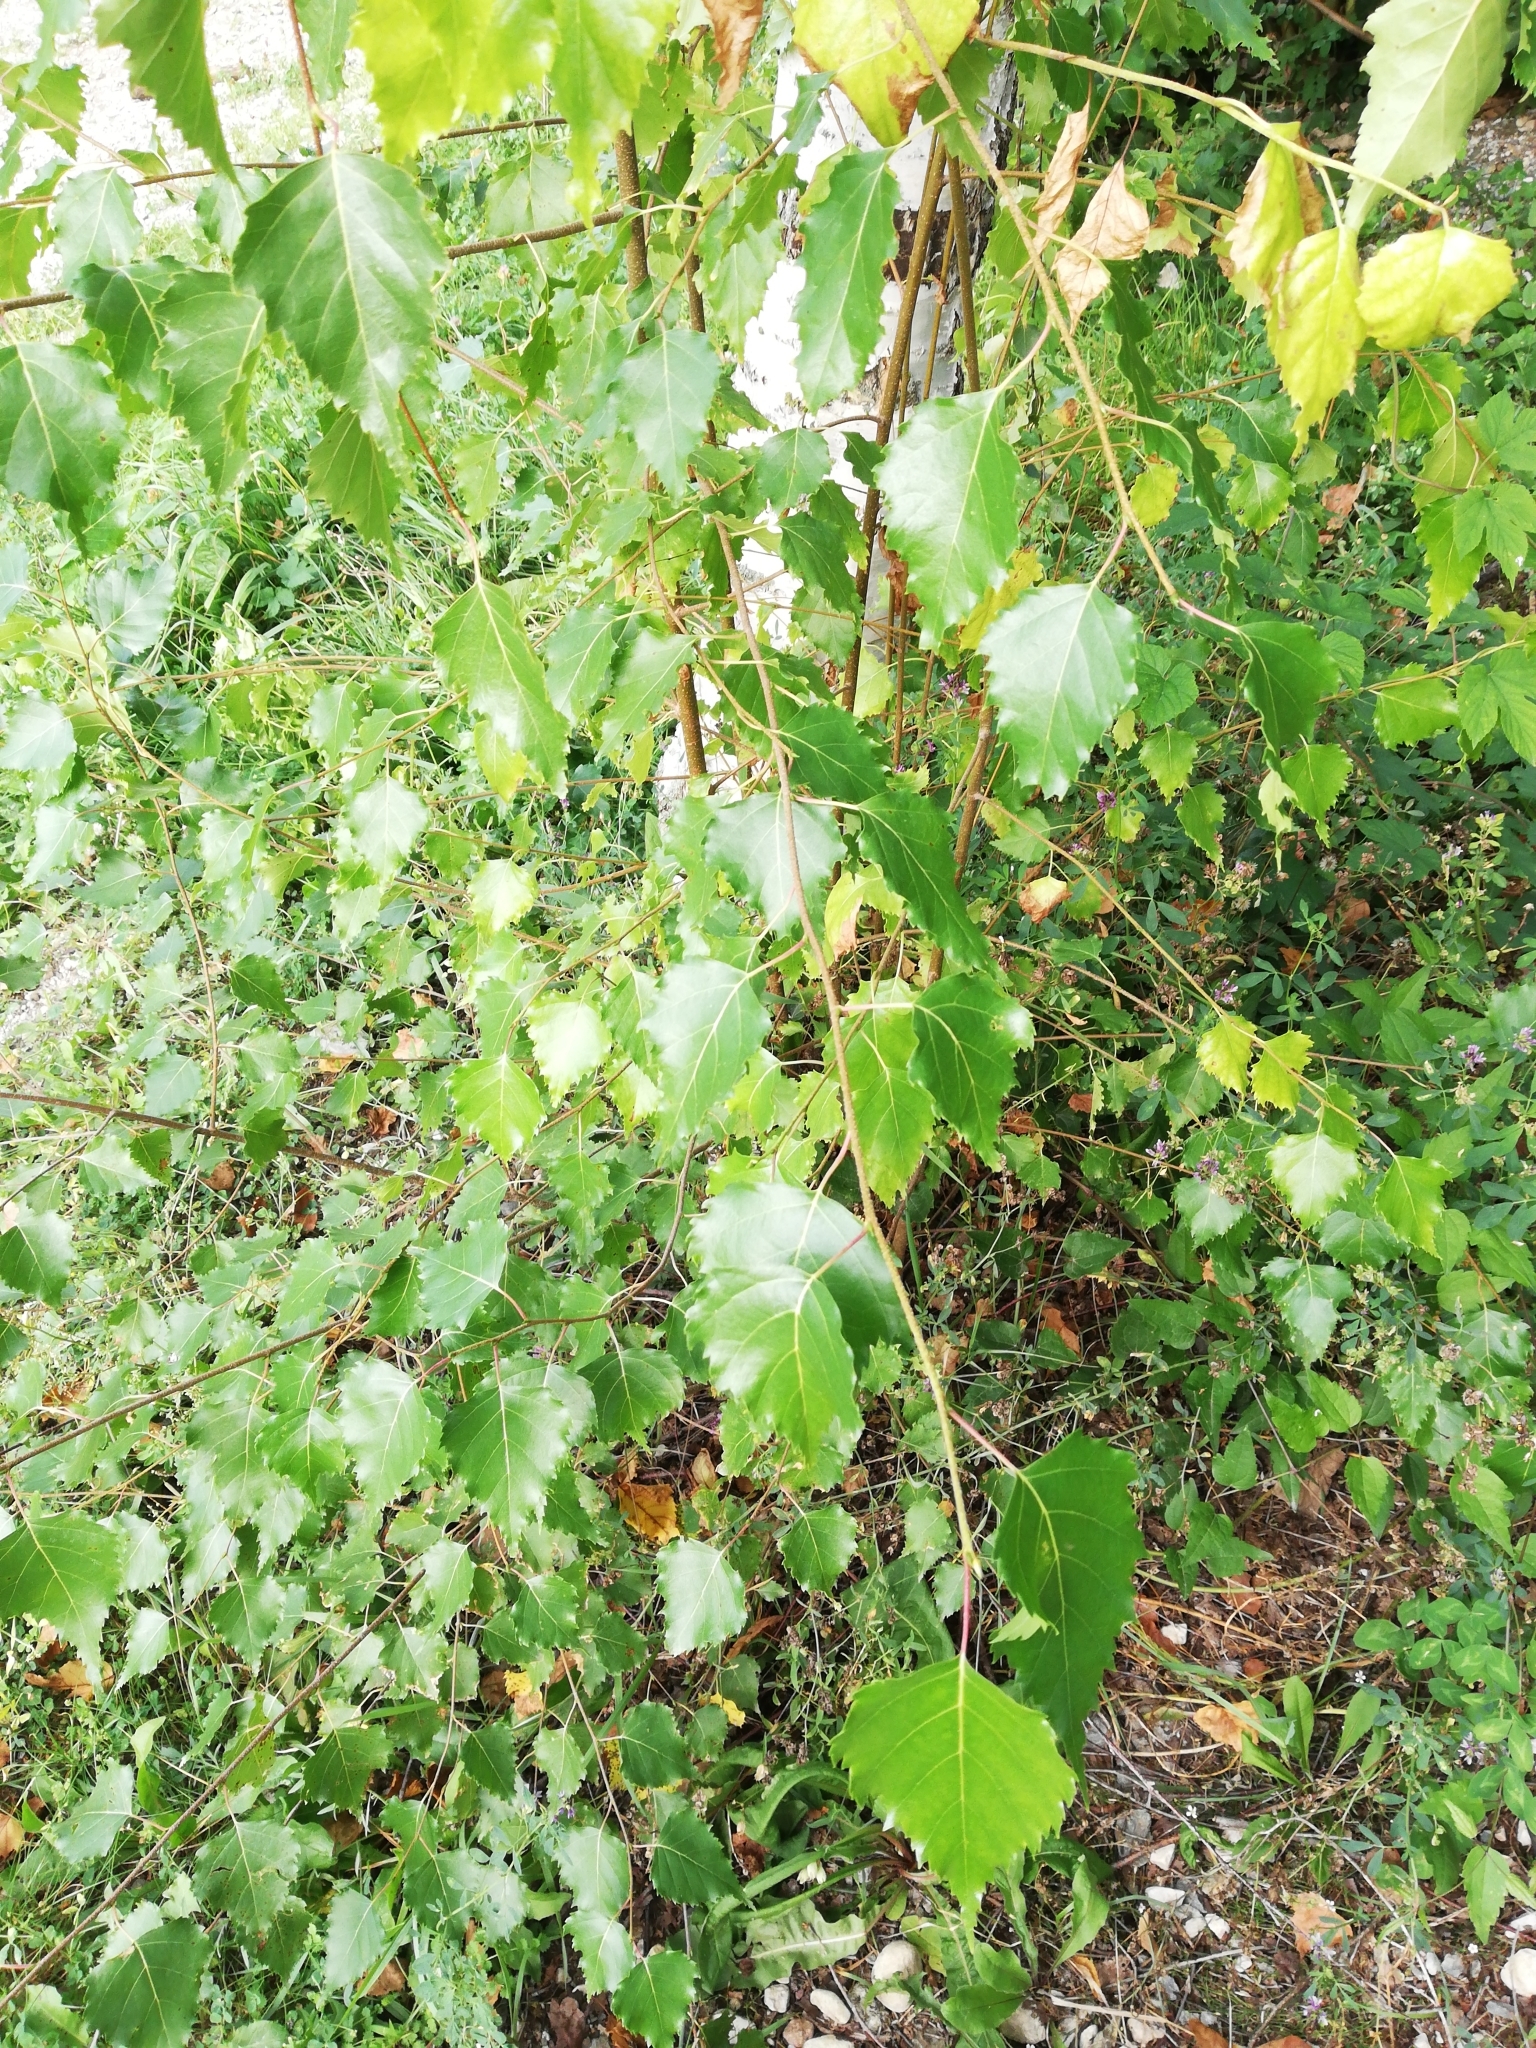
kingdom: Plantae
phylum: Tracheophyta
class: Magnoliopsida
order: Fagales
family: Betulaceae
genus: Betula
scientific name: Betula pendula
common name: Silver birch
